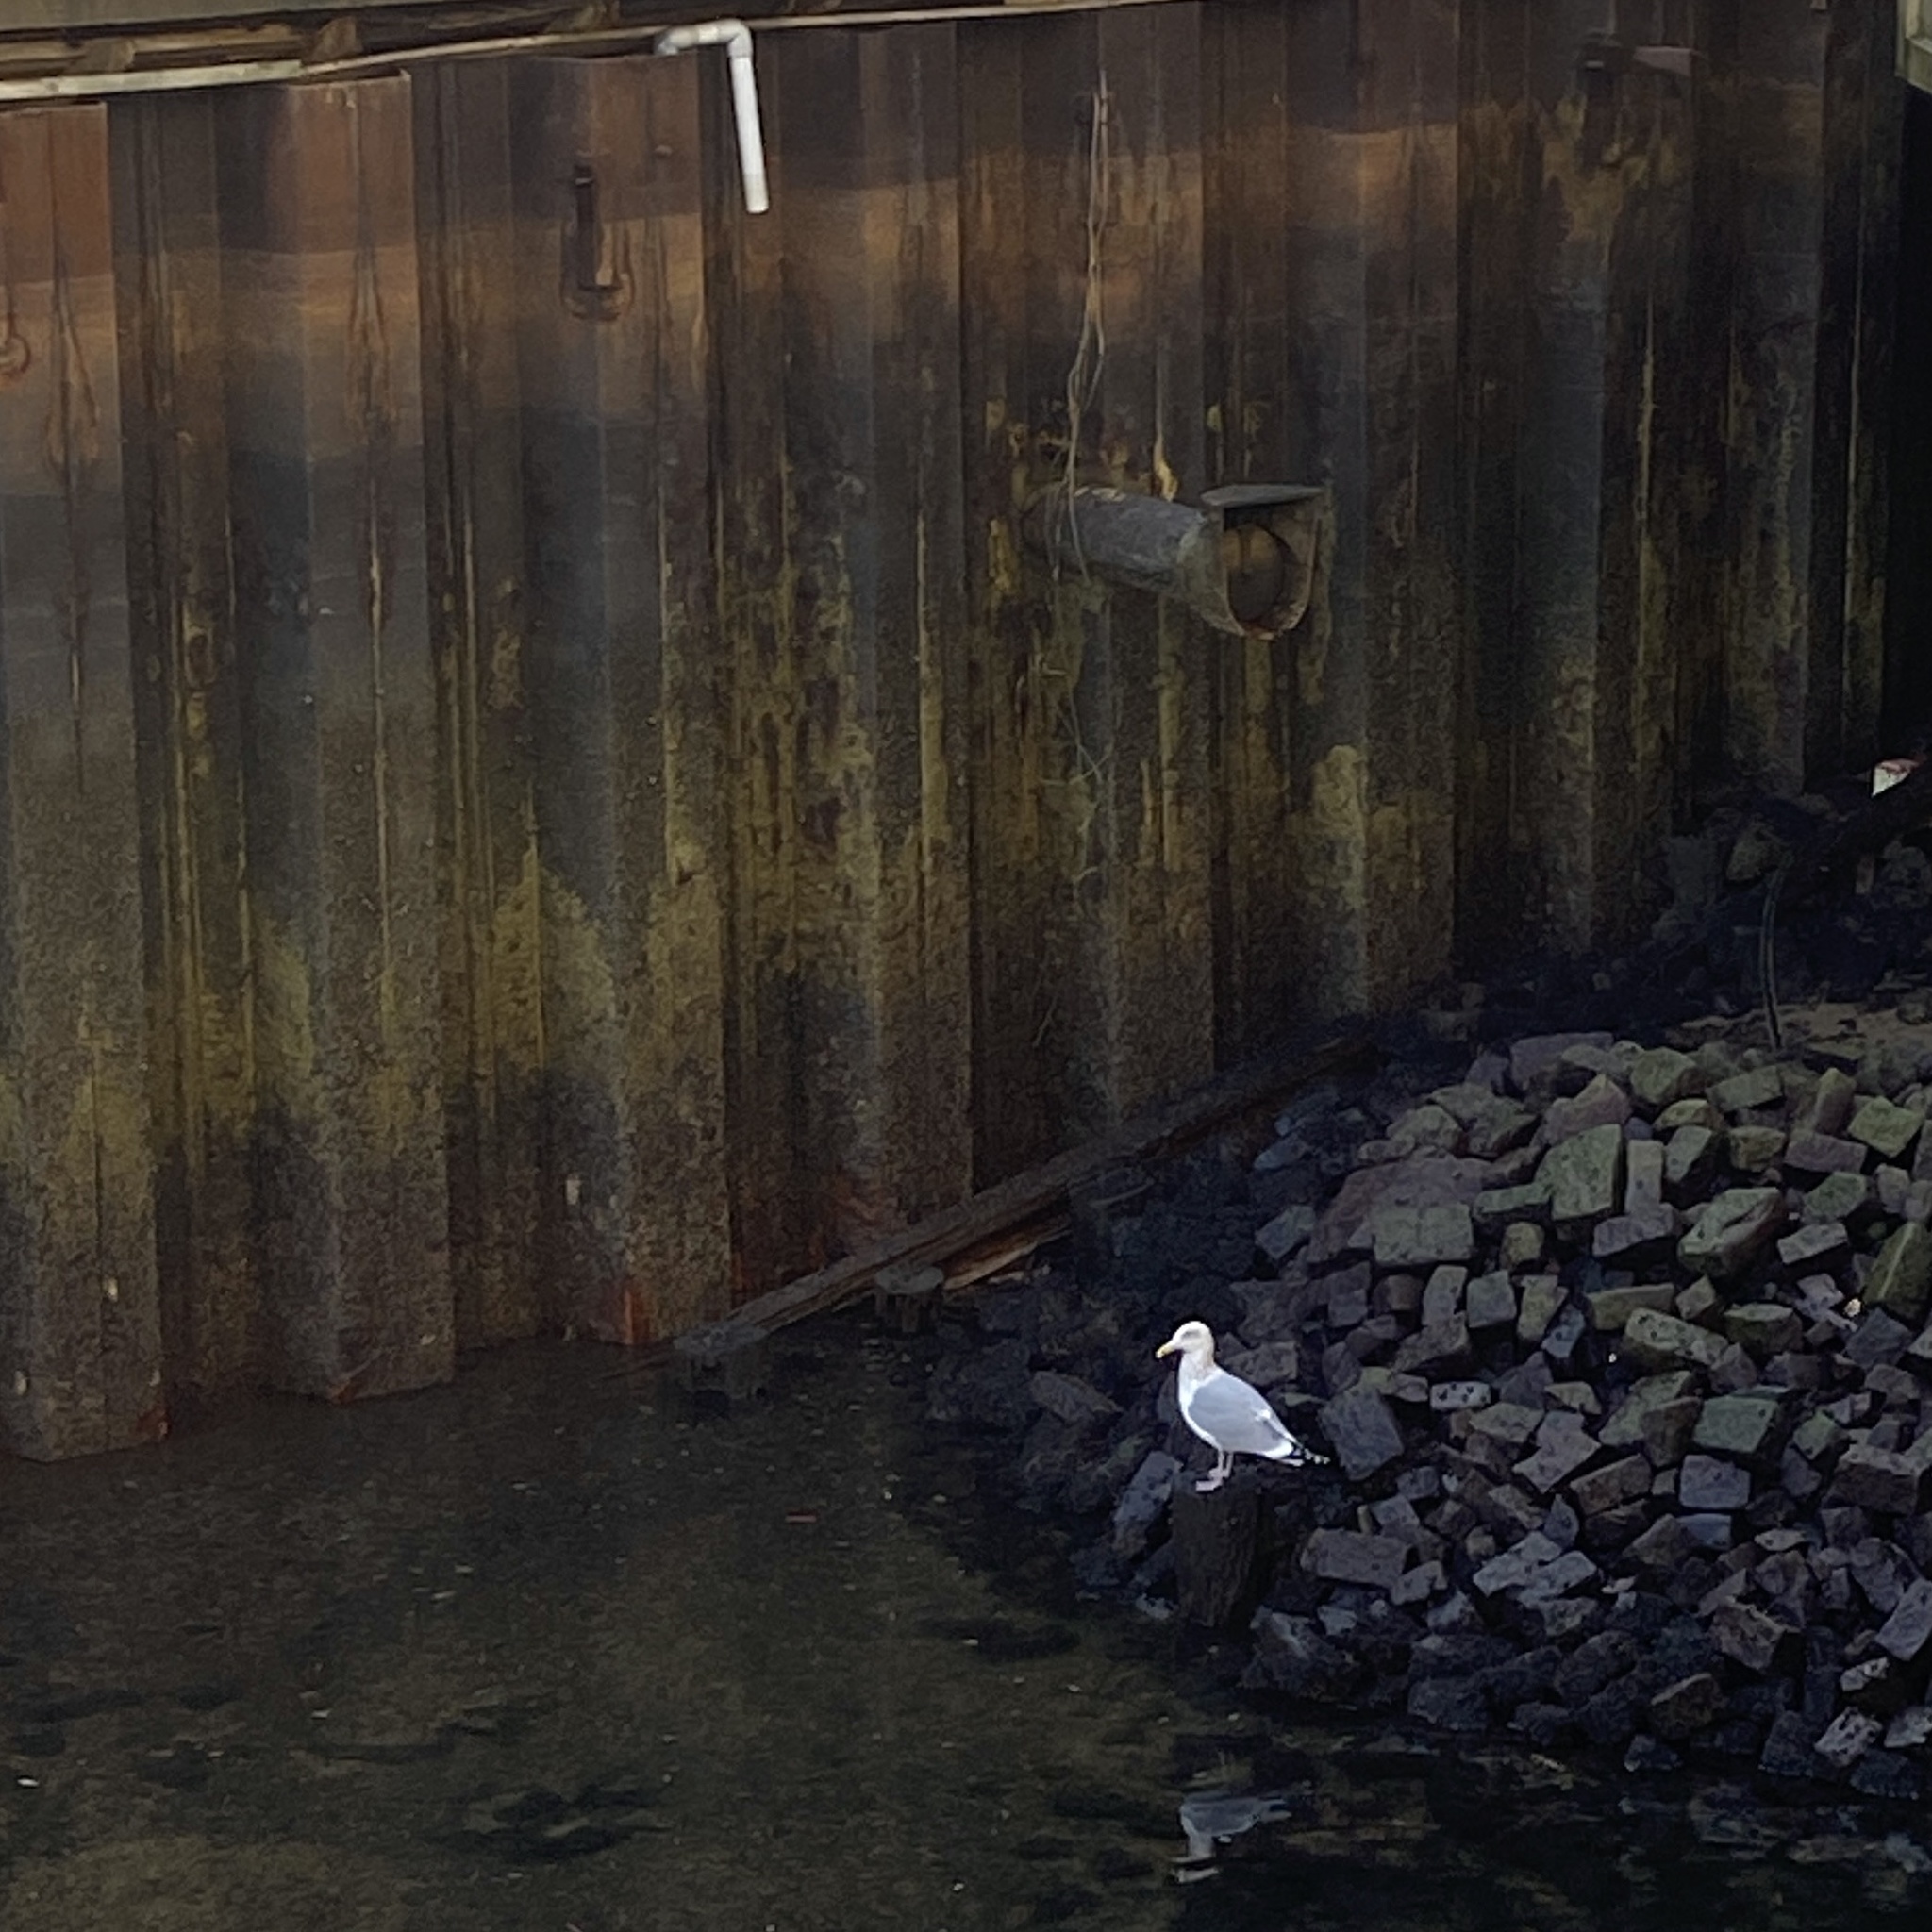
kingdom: Animalia
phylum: Chordata
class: Aves
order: Charadriiformes
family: Laridae
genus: Larus
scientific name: Larus argentatus
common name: Herring gull
